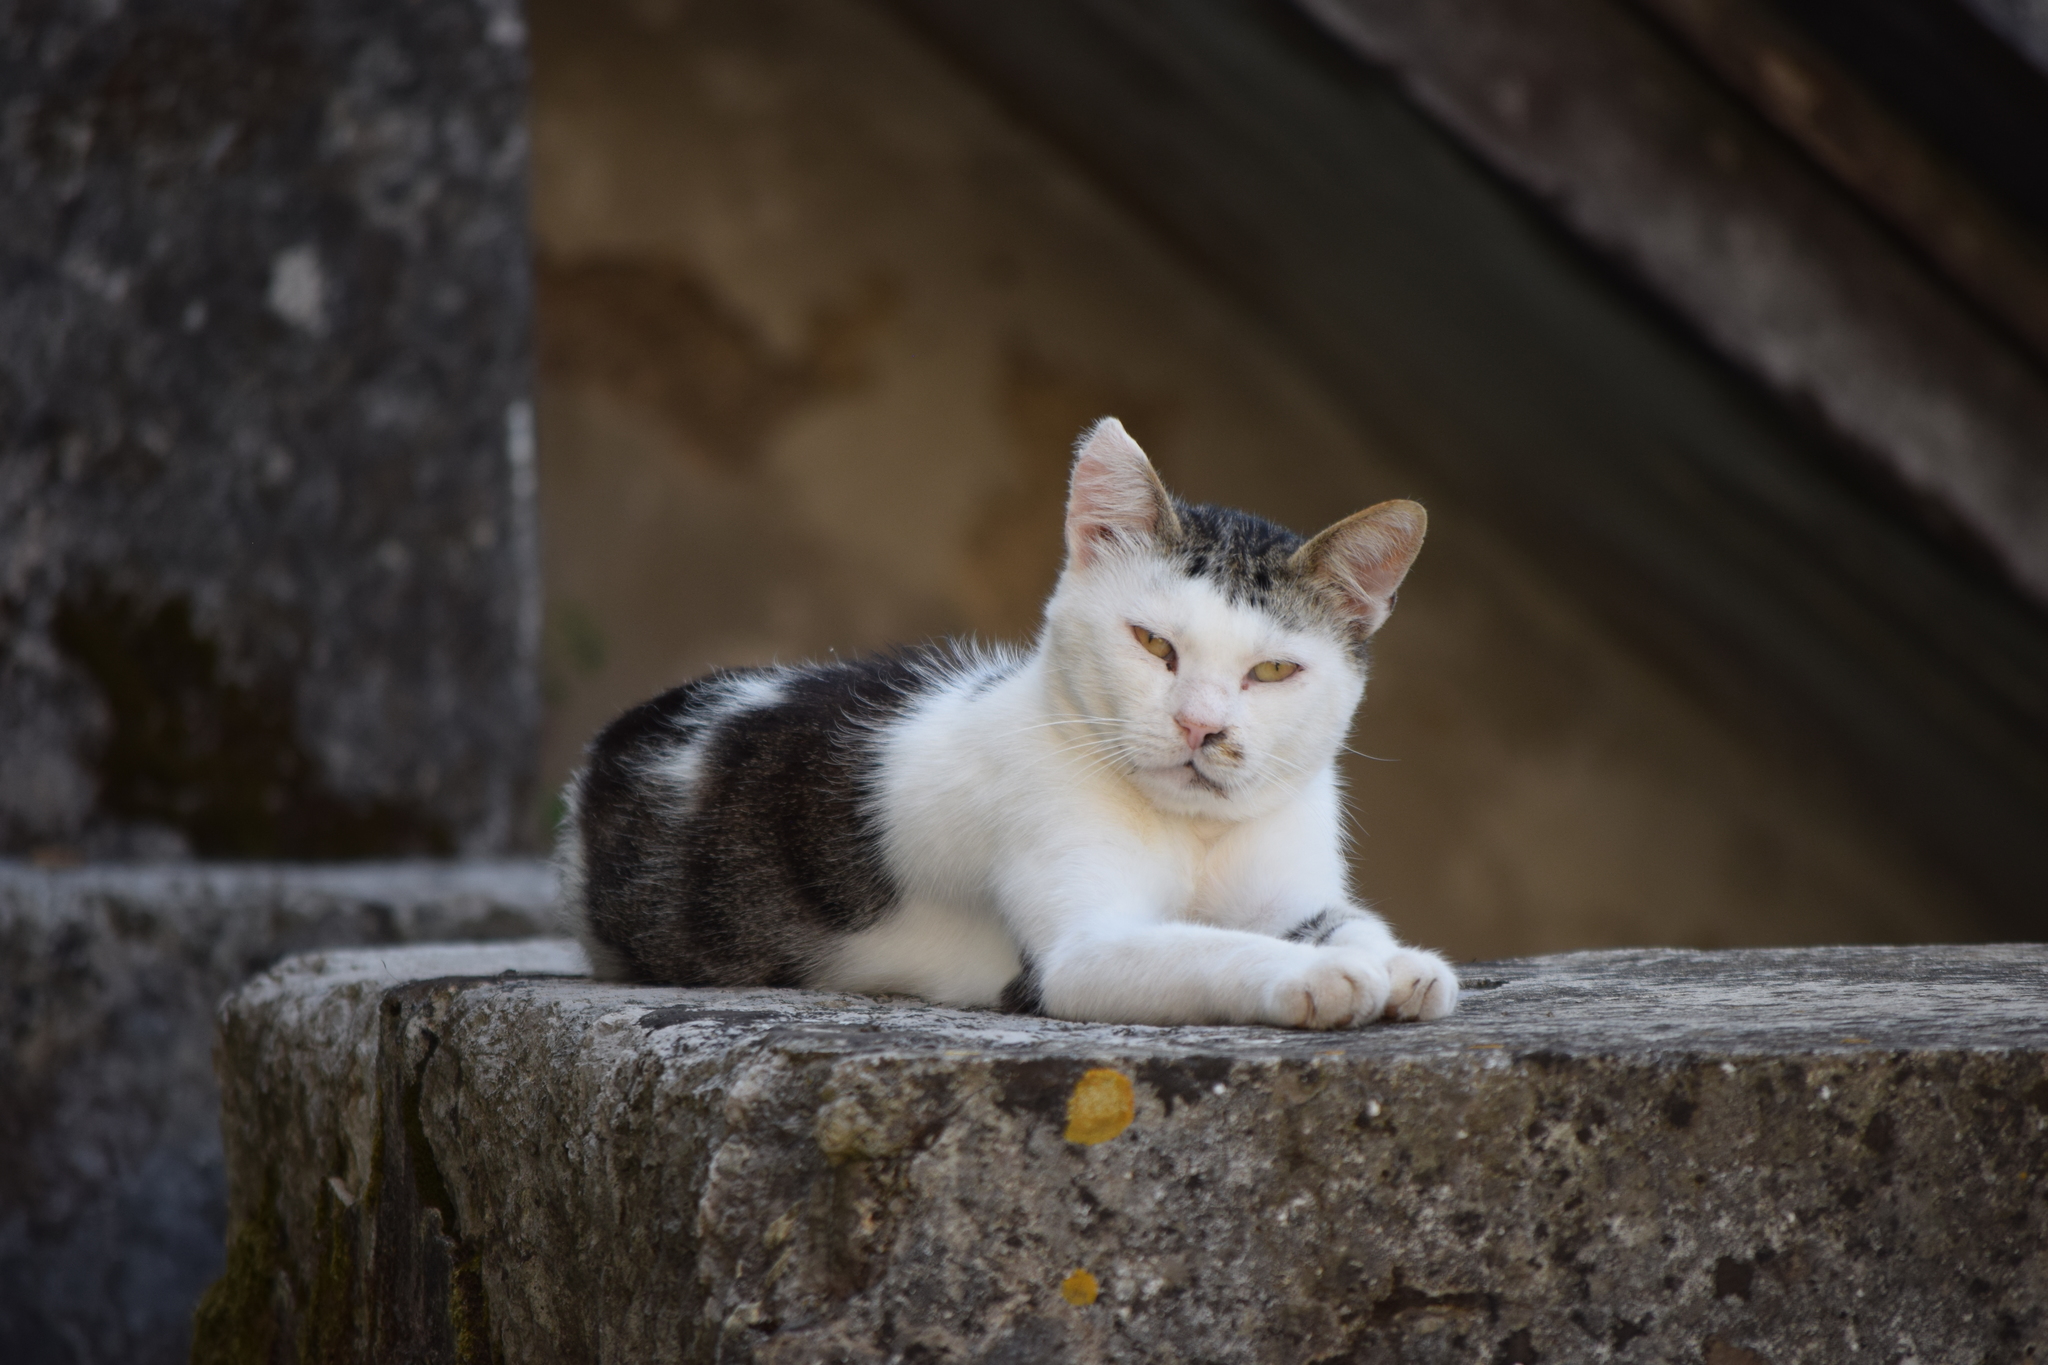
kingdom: Animalia
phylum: Chordata
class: Mammalia
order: Carnivora
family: Felidae
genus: Felis
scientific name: Felis catus
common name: Domestic cat
